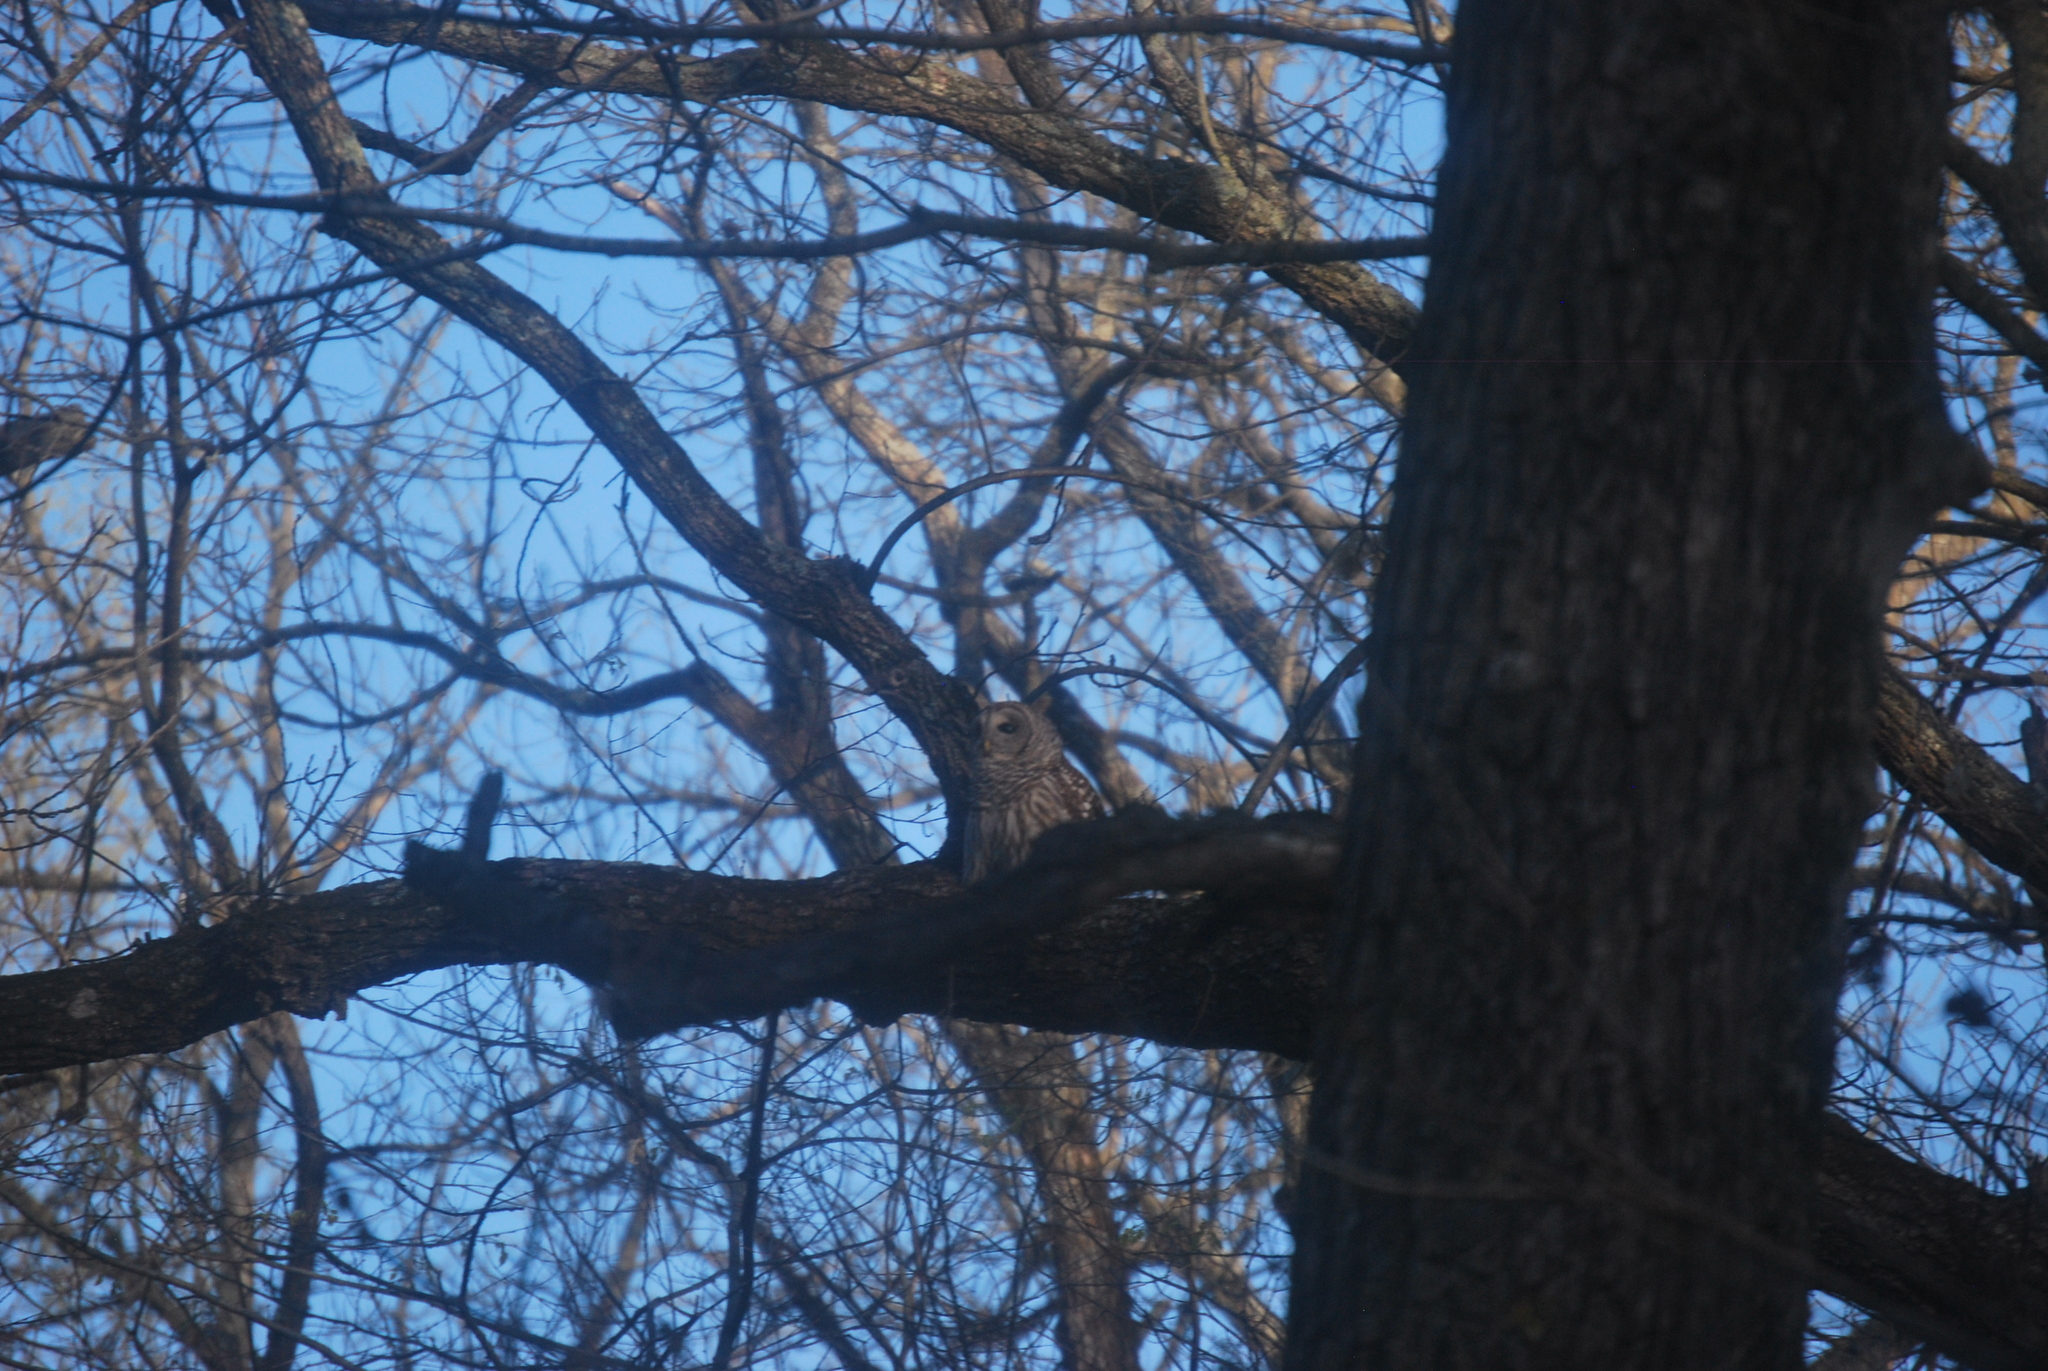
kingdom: Animalia
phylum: Chordata
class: Aves
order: Strigiformes
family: Strigidae
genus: Strix
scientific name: Strix varia
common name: Barred owl
